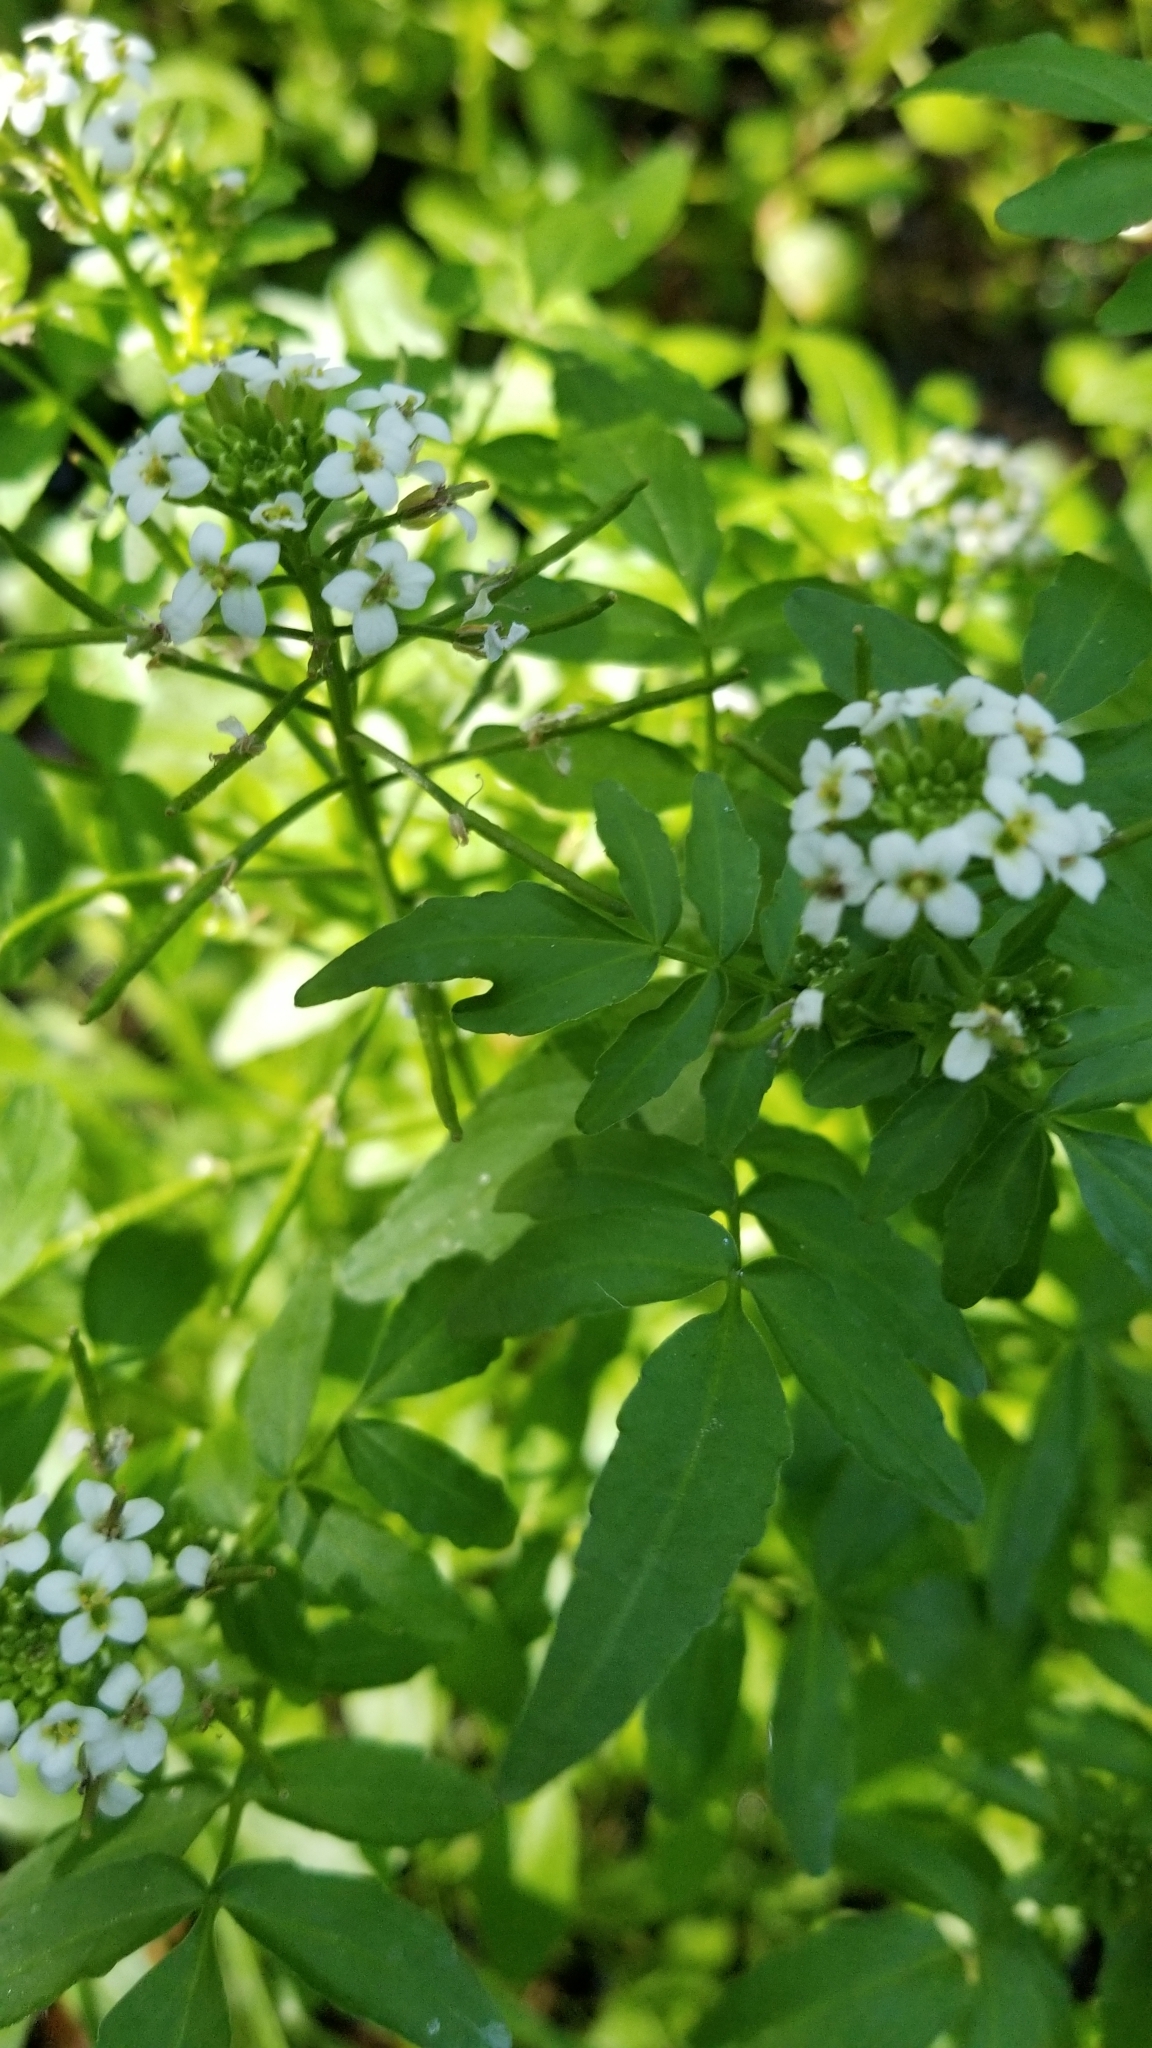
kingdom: Plantae
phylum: Tracheophyta
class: Magnoliopsida
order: Brassicales
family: Brassicaceae
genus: Nasturtium
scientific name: Nasturtium officinale
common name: Watercress
